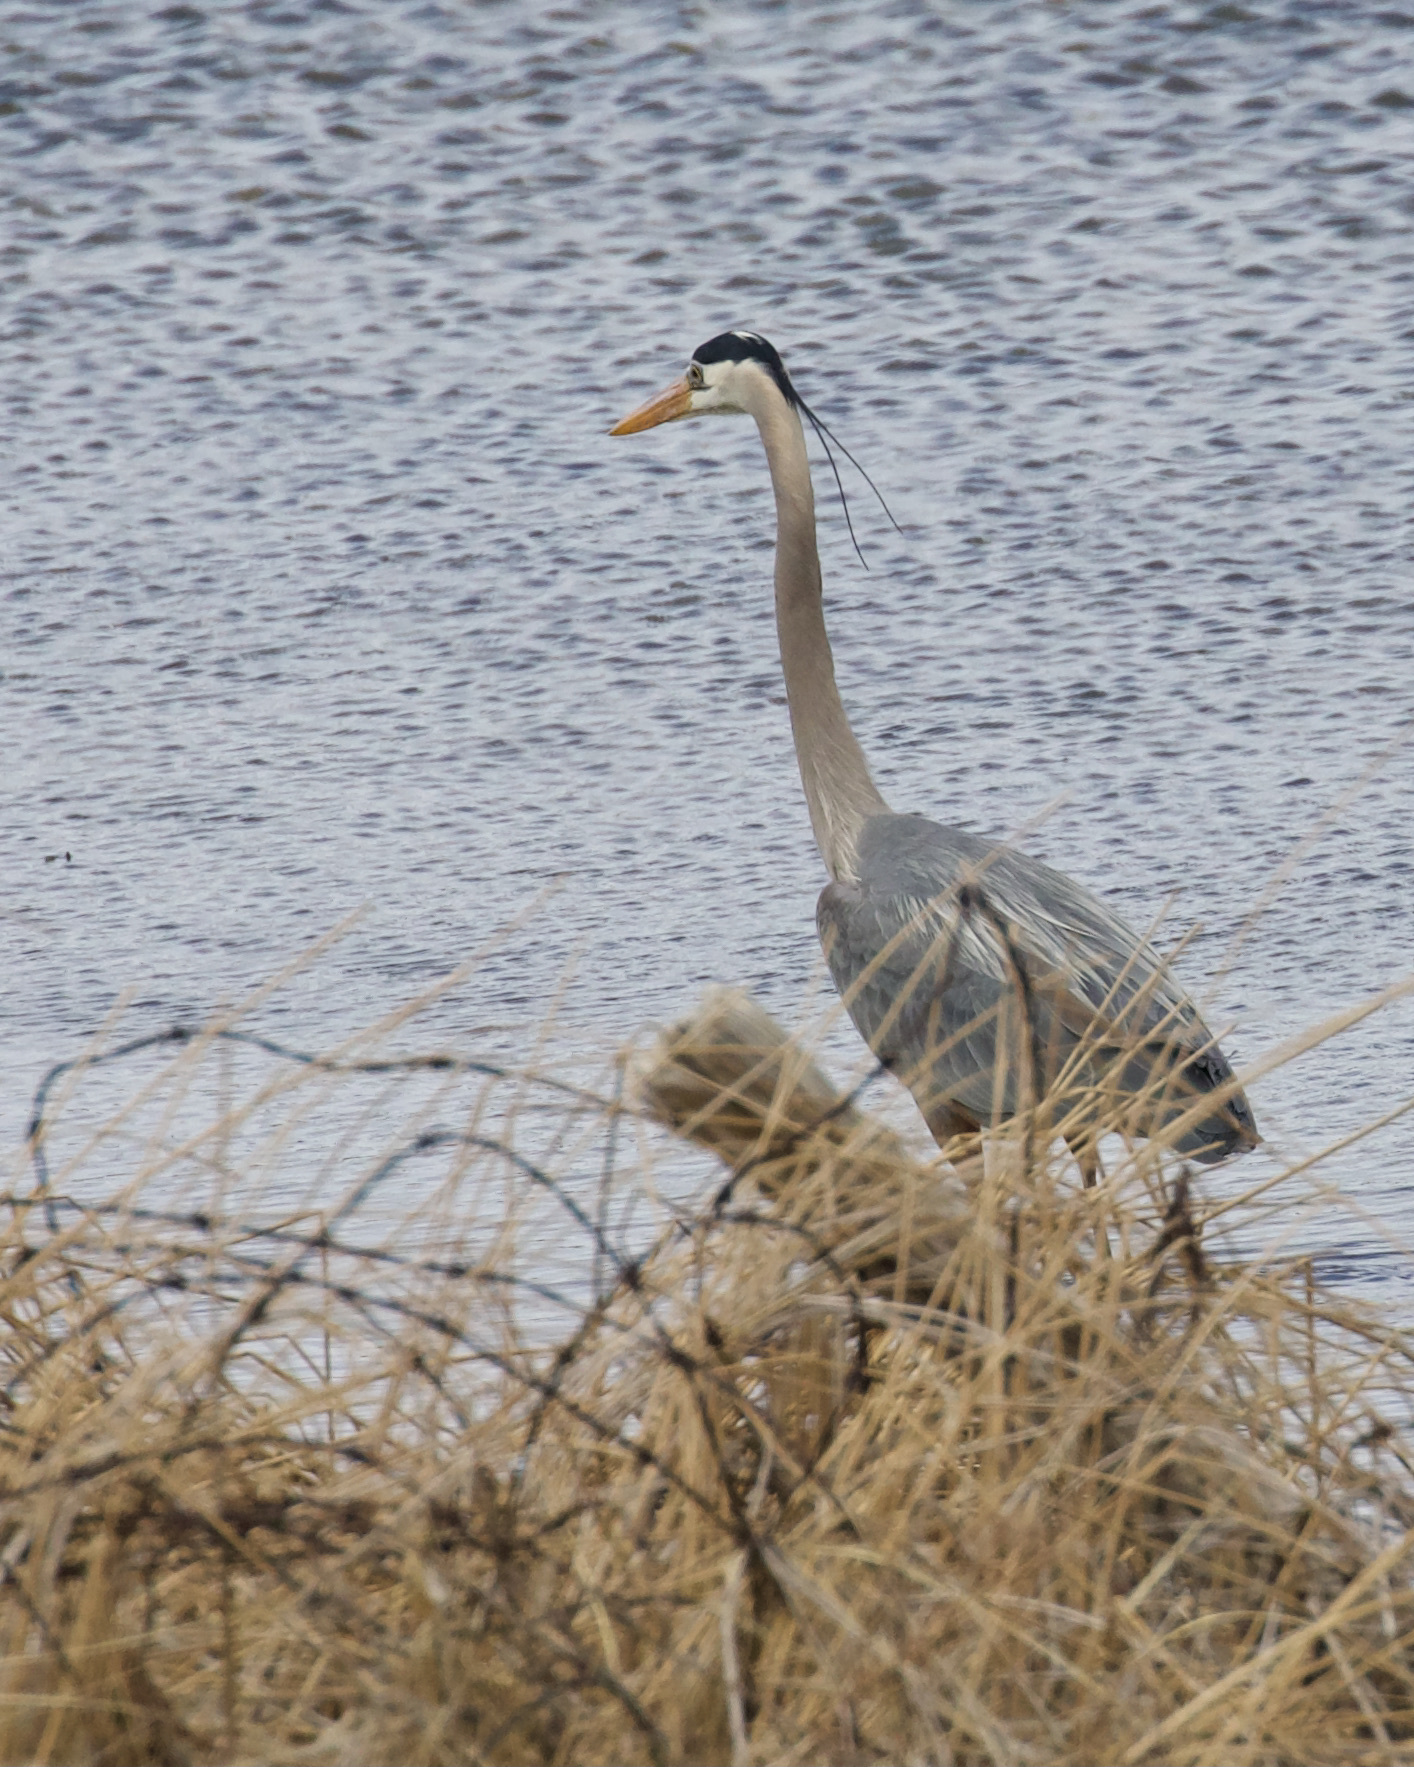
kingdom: Animalia
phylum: Chordata
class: Aves
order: Pelecaniformes
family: Ardeidae
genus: Ardea
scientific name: Ardea herodias
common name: Great blue heron
